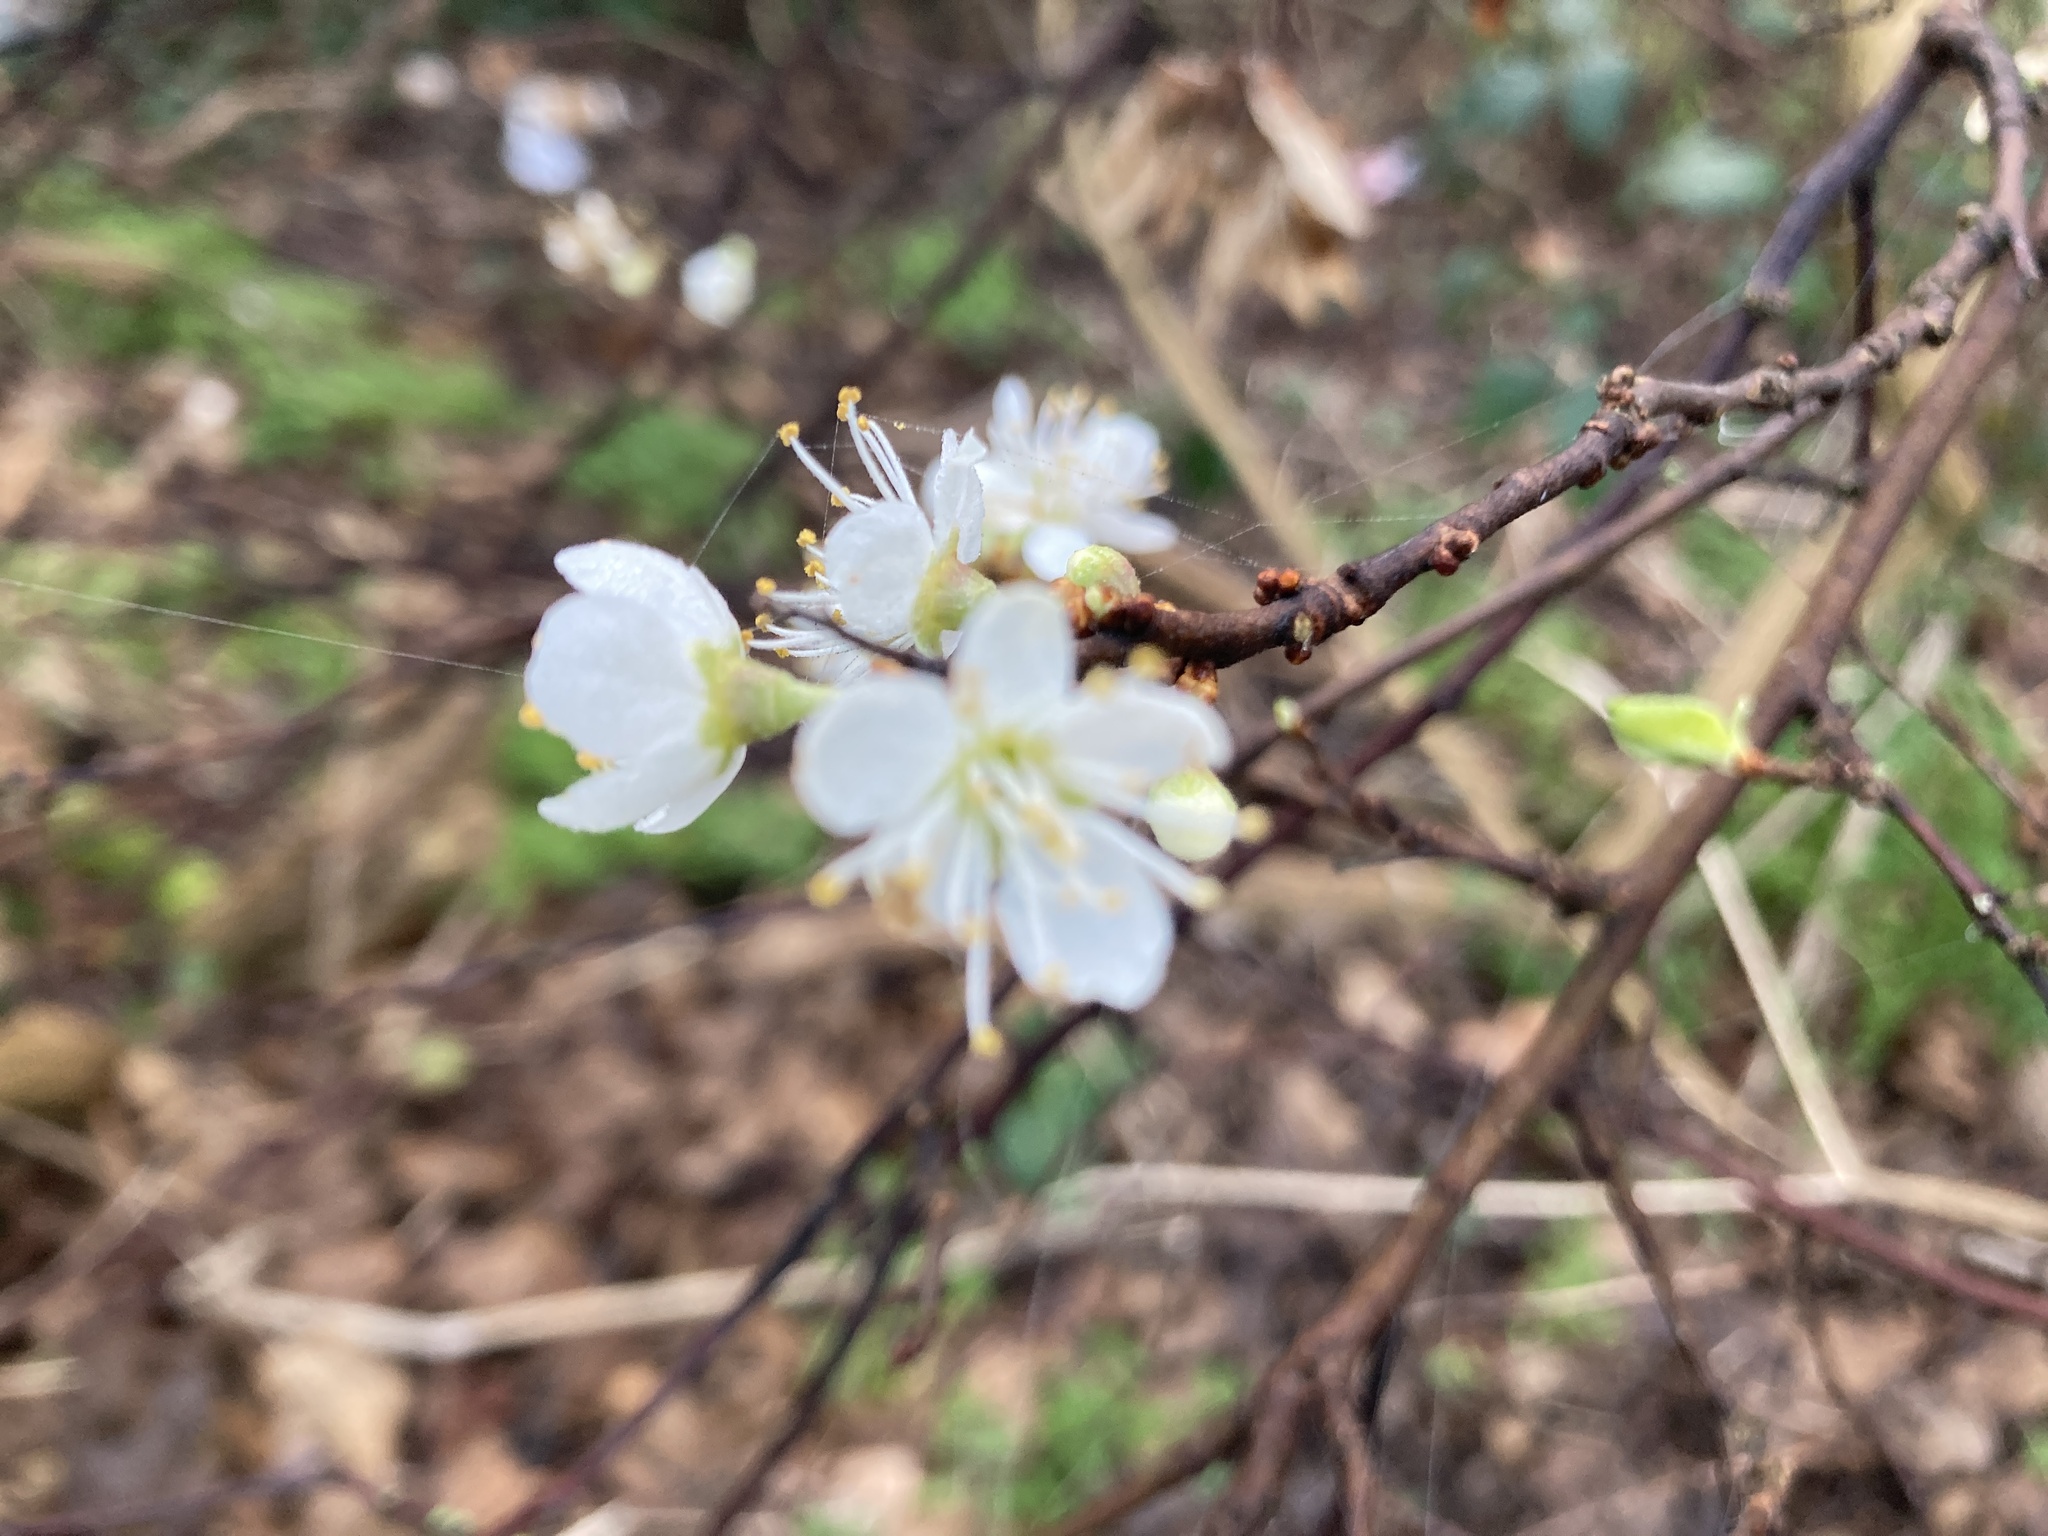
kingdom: Plantae
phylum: Tracheophyta
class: Magnoliopsida
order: Rosales
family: Rosaceae
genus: Prunus
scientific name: Prunus spinosa
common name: Blackthorn
